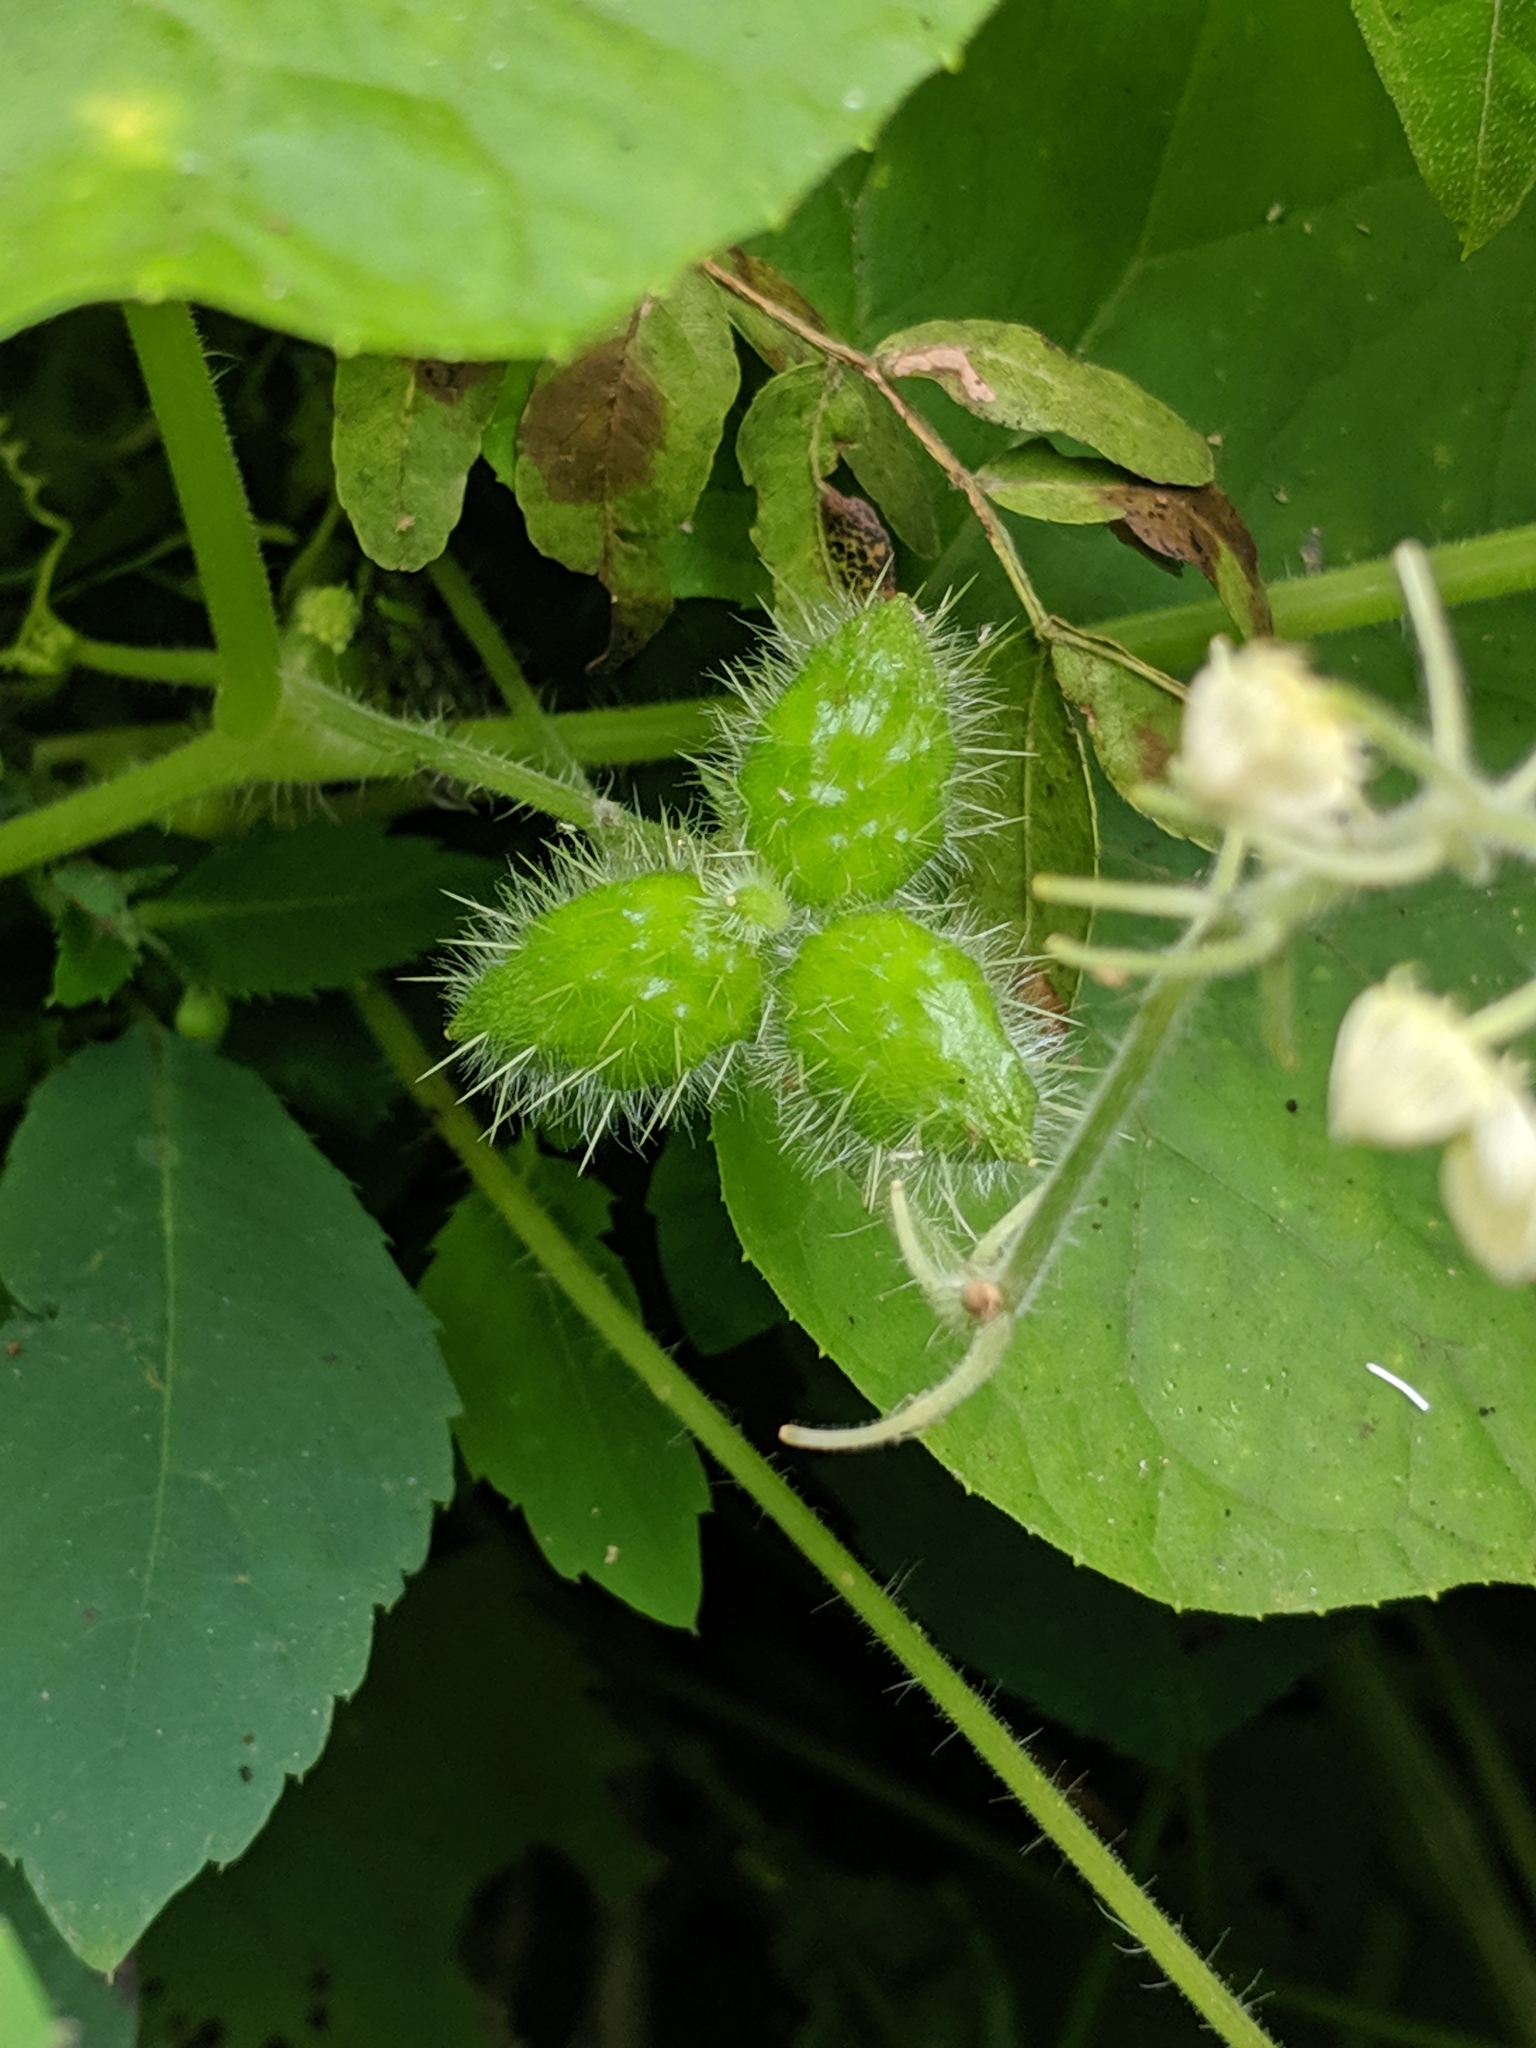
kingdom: Plantae
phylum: Tracheophyta
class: Magnoliopsida
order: Cucurbitales
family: Cucurbitaceae
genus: Sicyos
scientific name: Sicyos angulatus
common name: Angled burr cucumber
